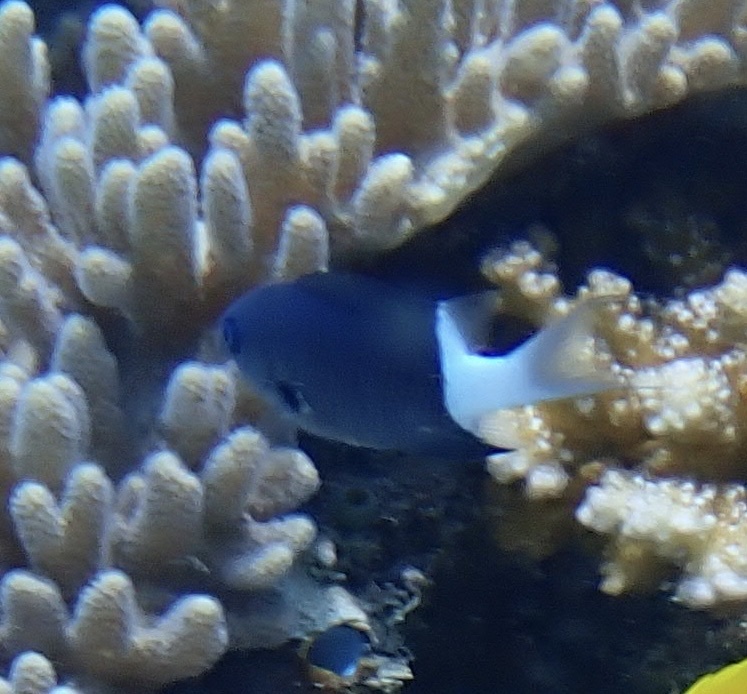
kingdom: Animalia
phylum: Chordata
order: Perciformes
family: Pomacentridae
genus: Pycnochromis
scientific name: Pycnochromis margaritifer
